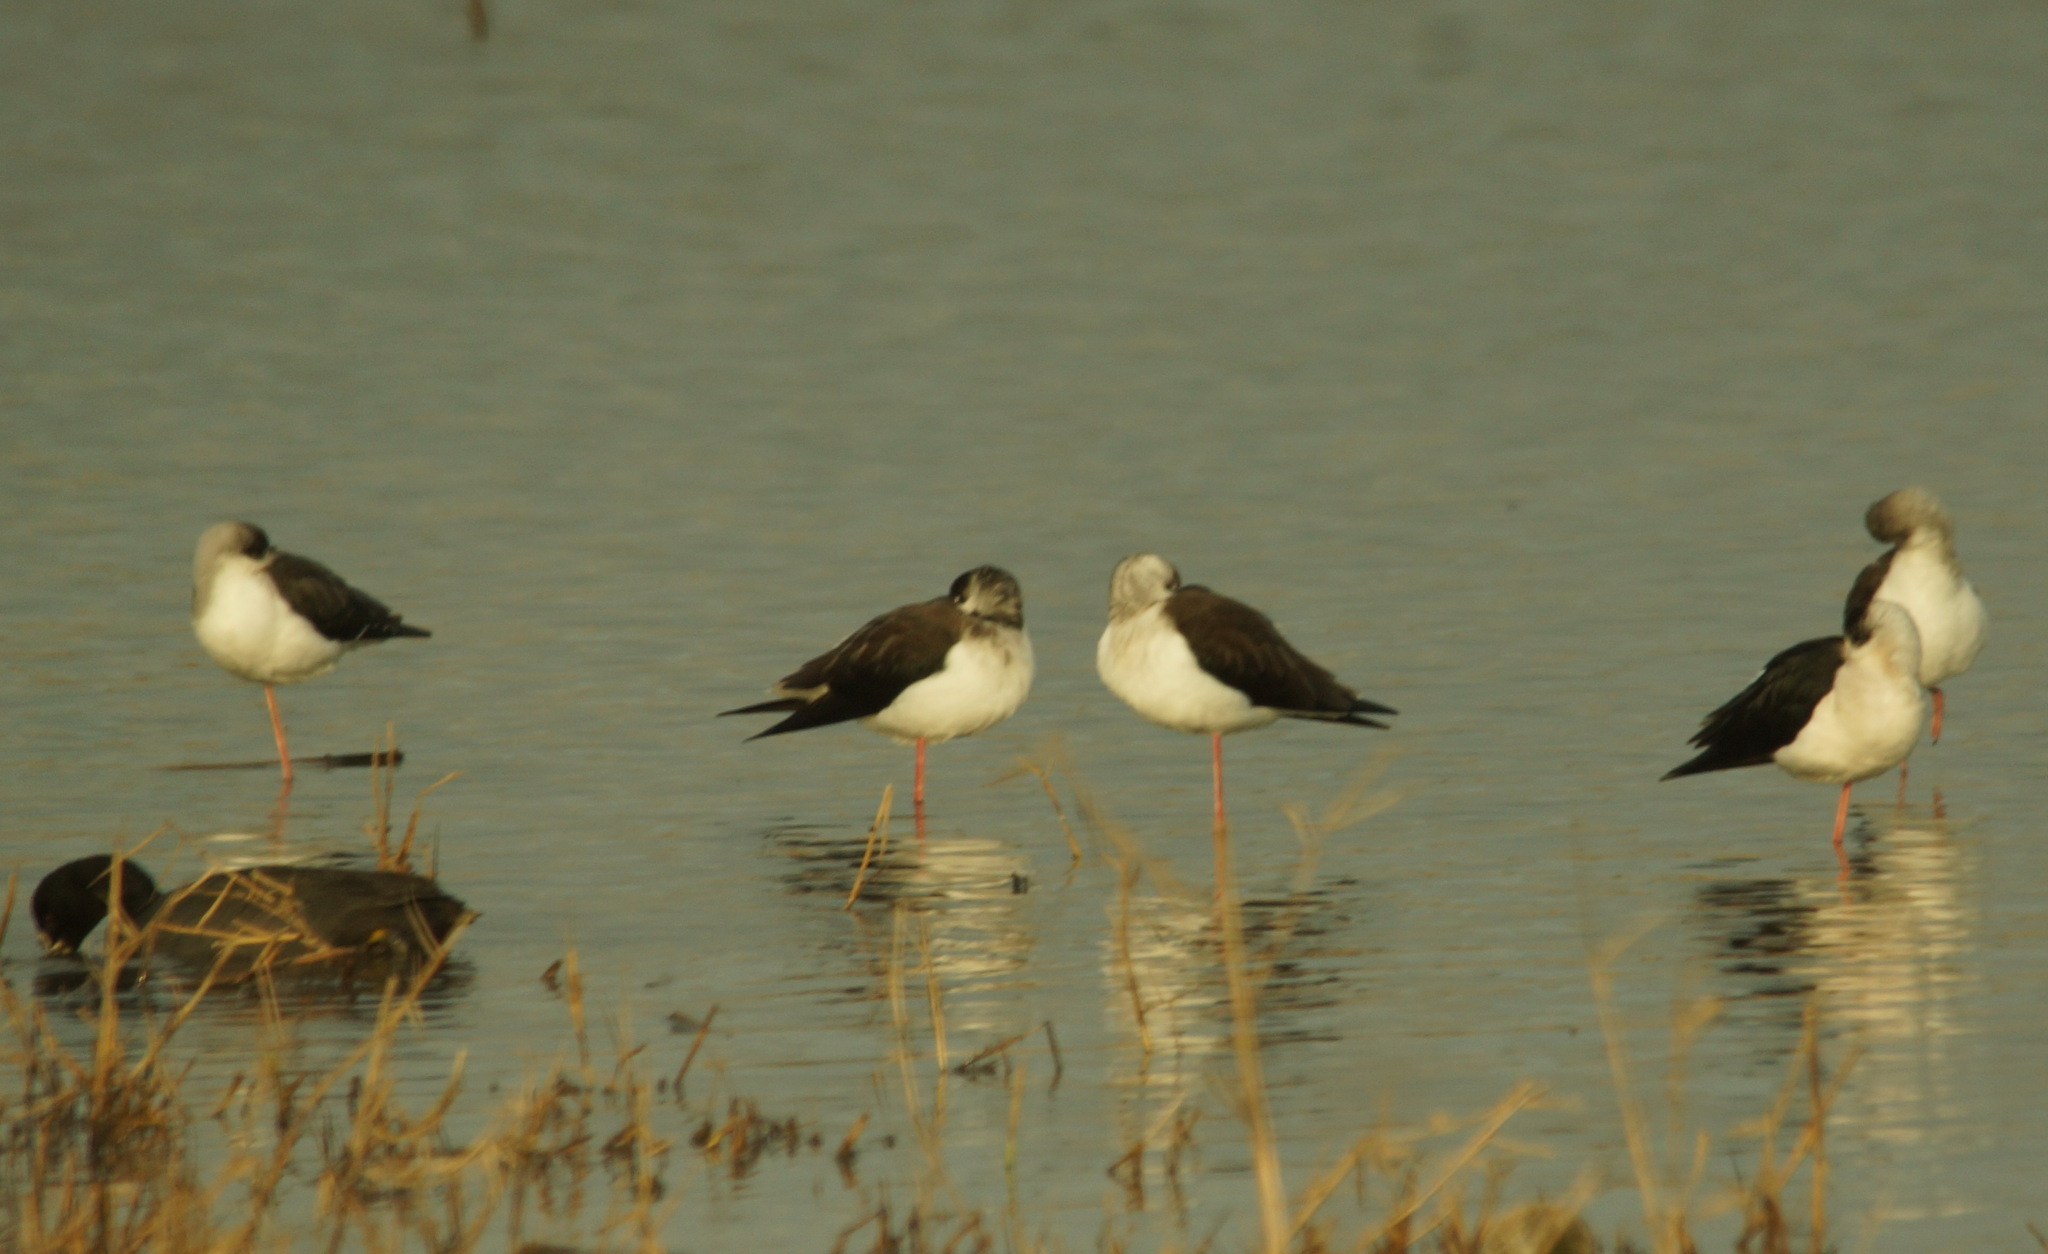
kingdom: Animalia
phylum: Chordata
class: Aves
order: Charadriiformes
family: Recurvirostridae
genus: Himantopus
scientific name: Himantopus himantopus
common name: Black-winged stilt
